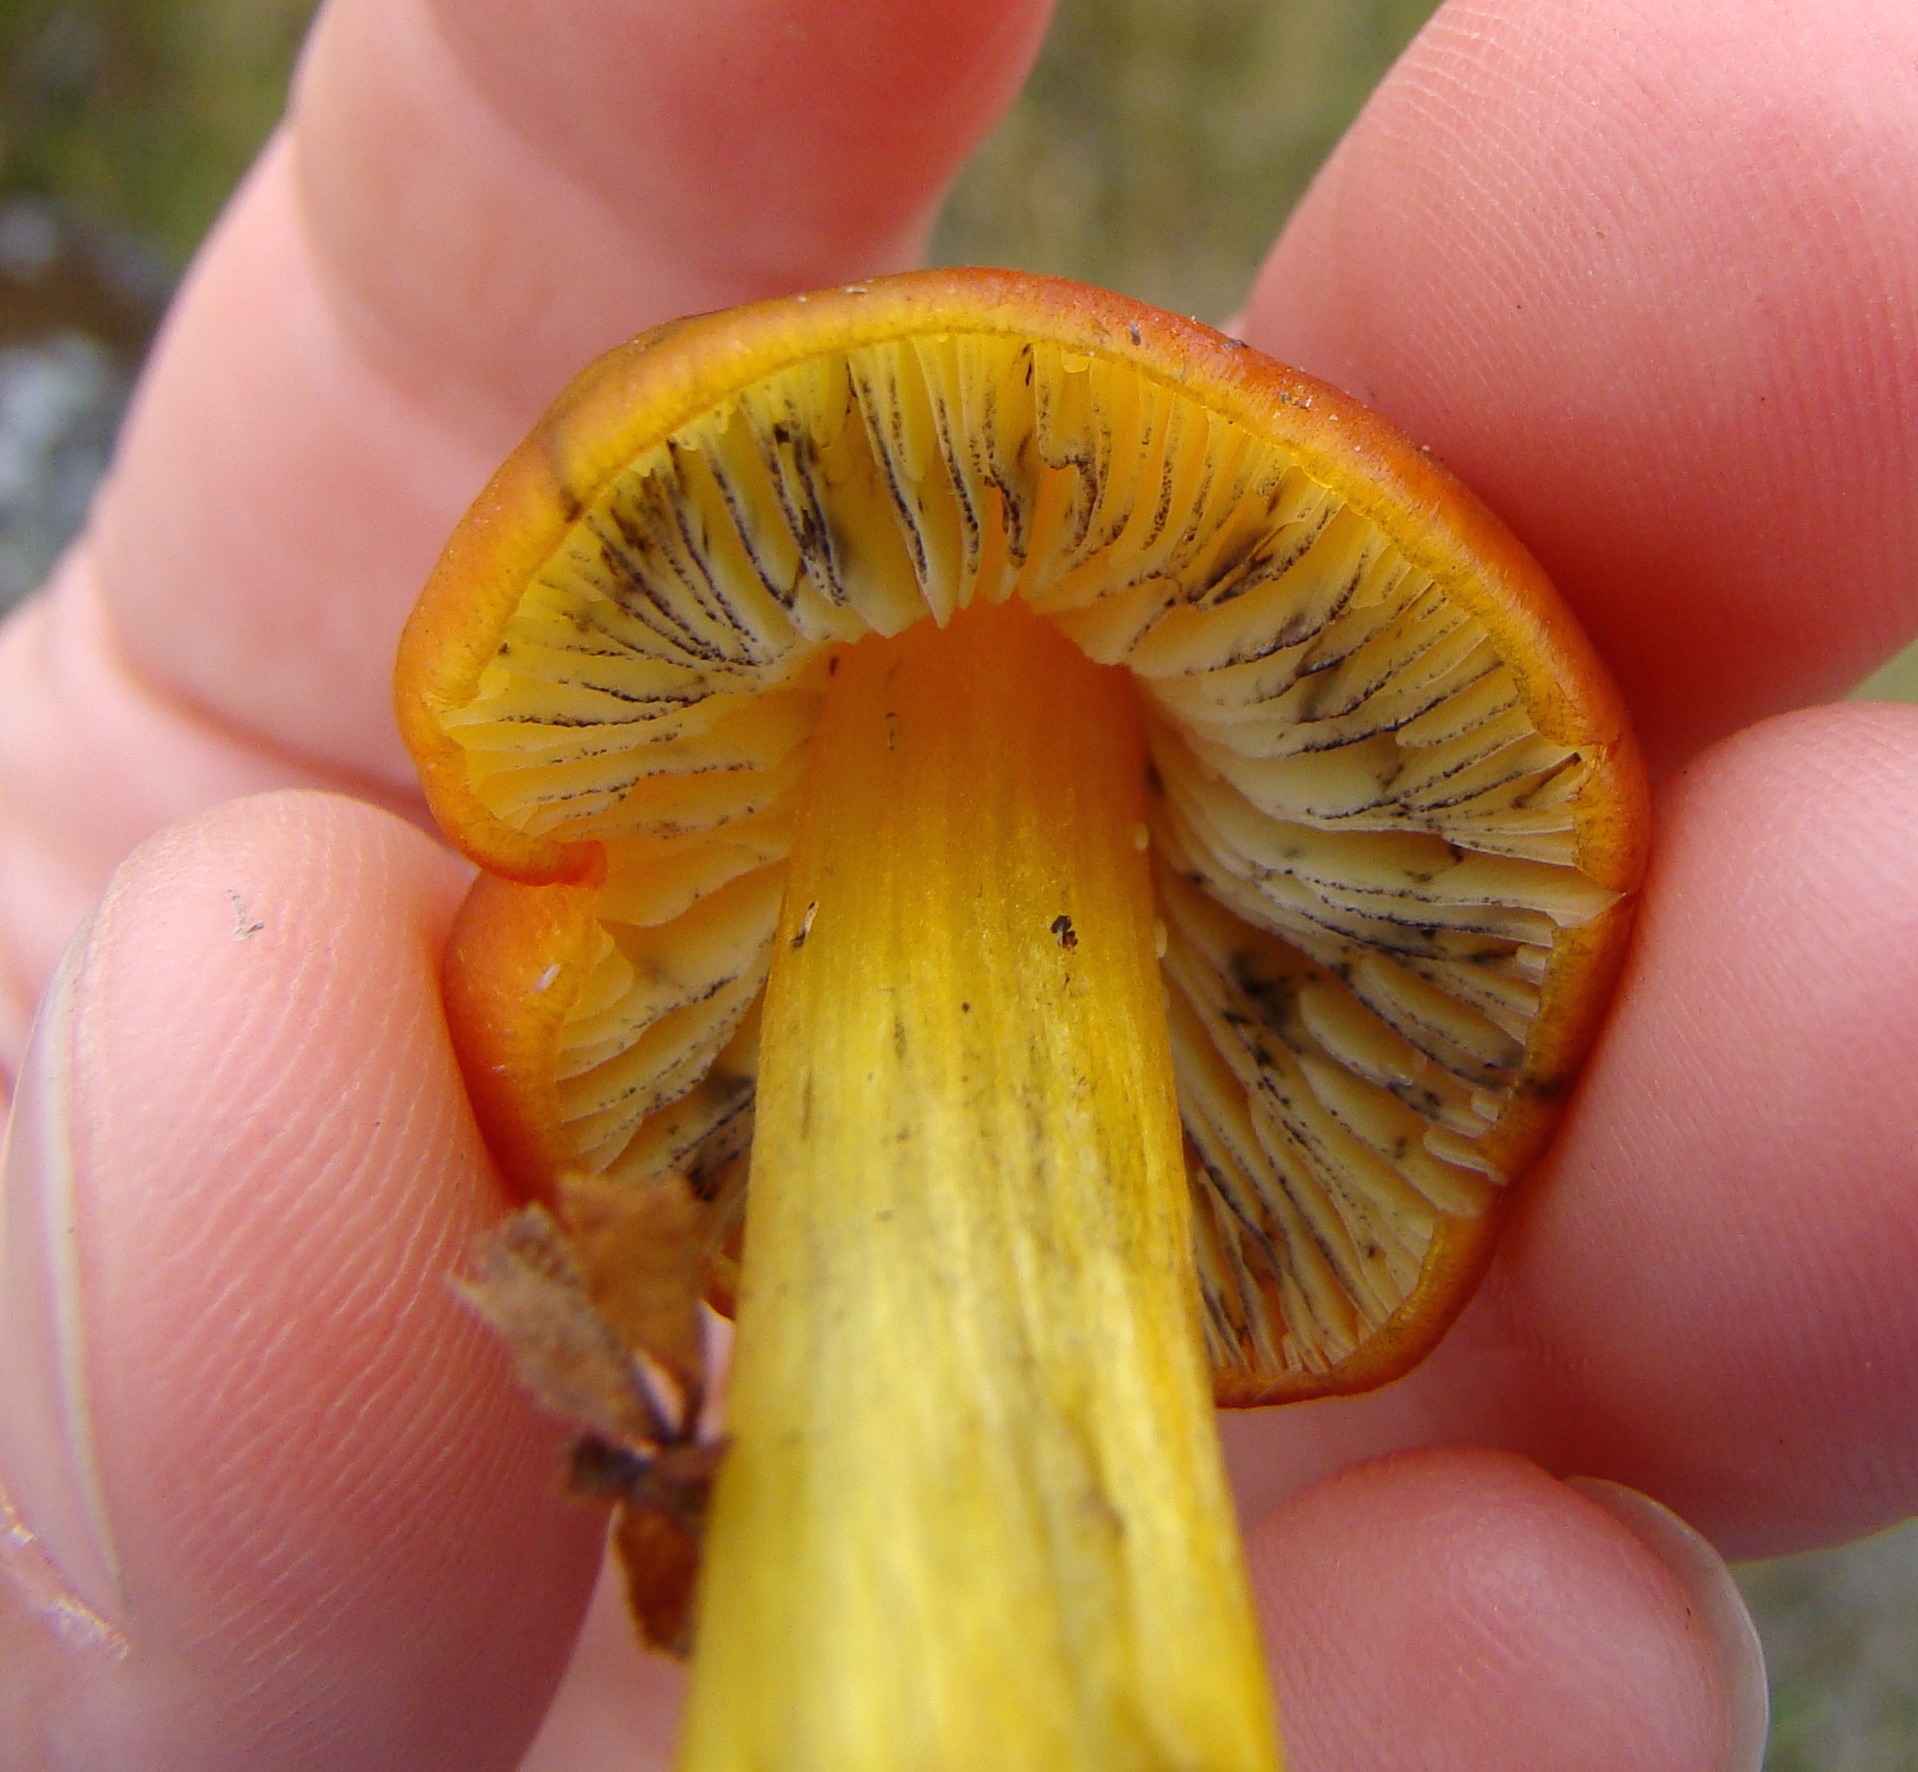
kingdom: Fungi
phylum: Basidiomycota
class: Agaricomycetes
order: Agaricales
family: Hygrophoraceae
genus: Hygrocybe
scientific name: Hygrocybe conica
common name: Blackening wax-cap
